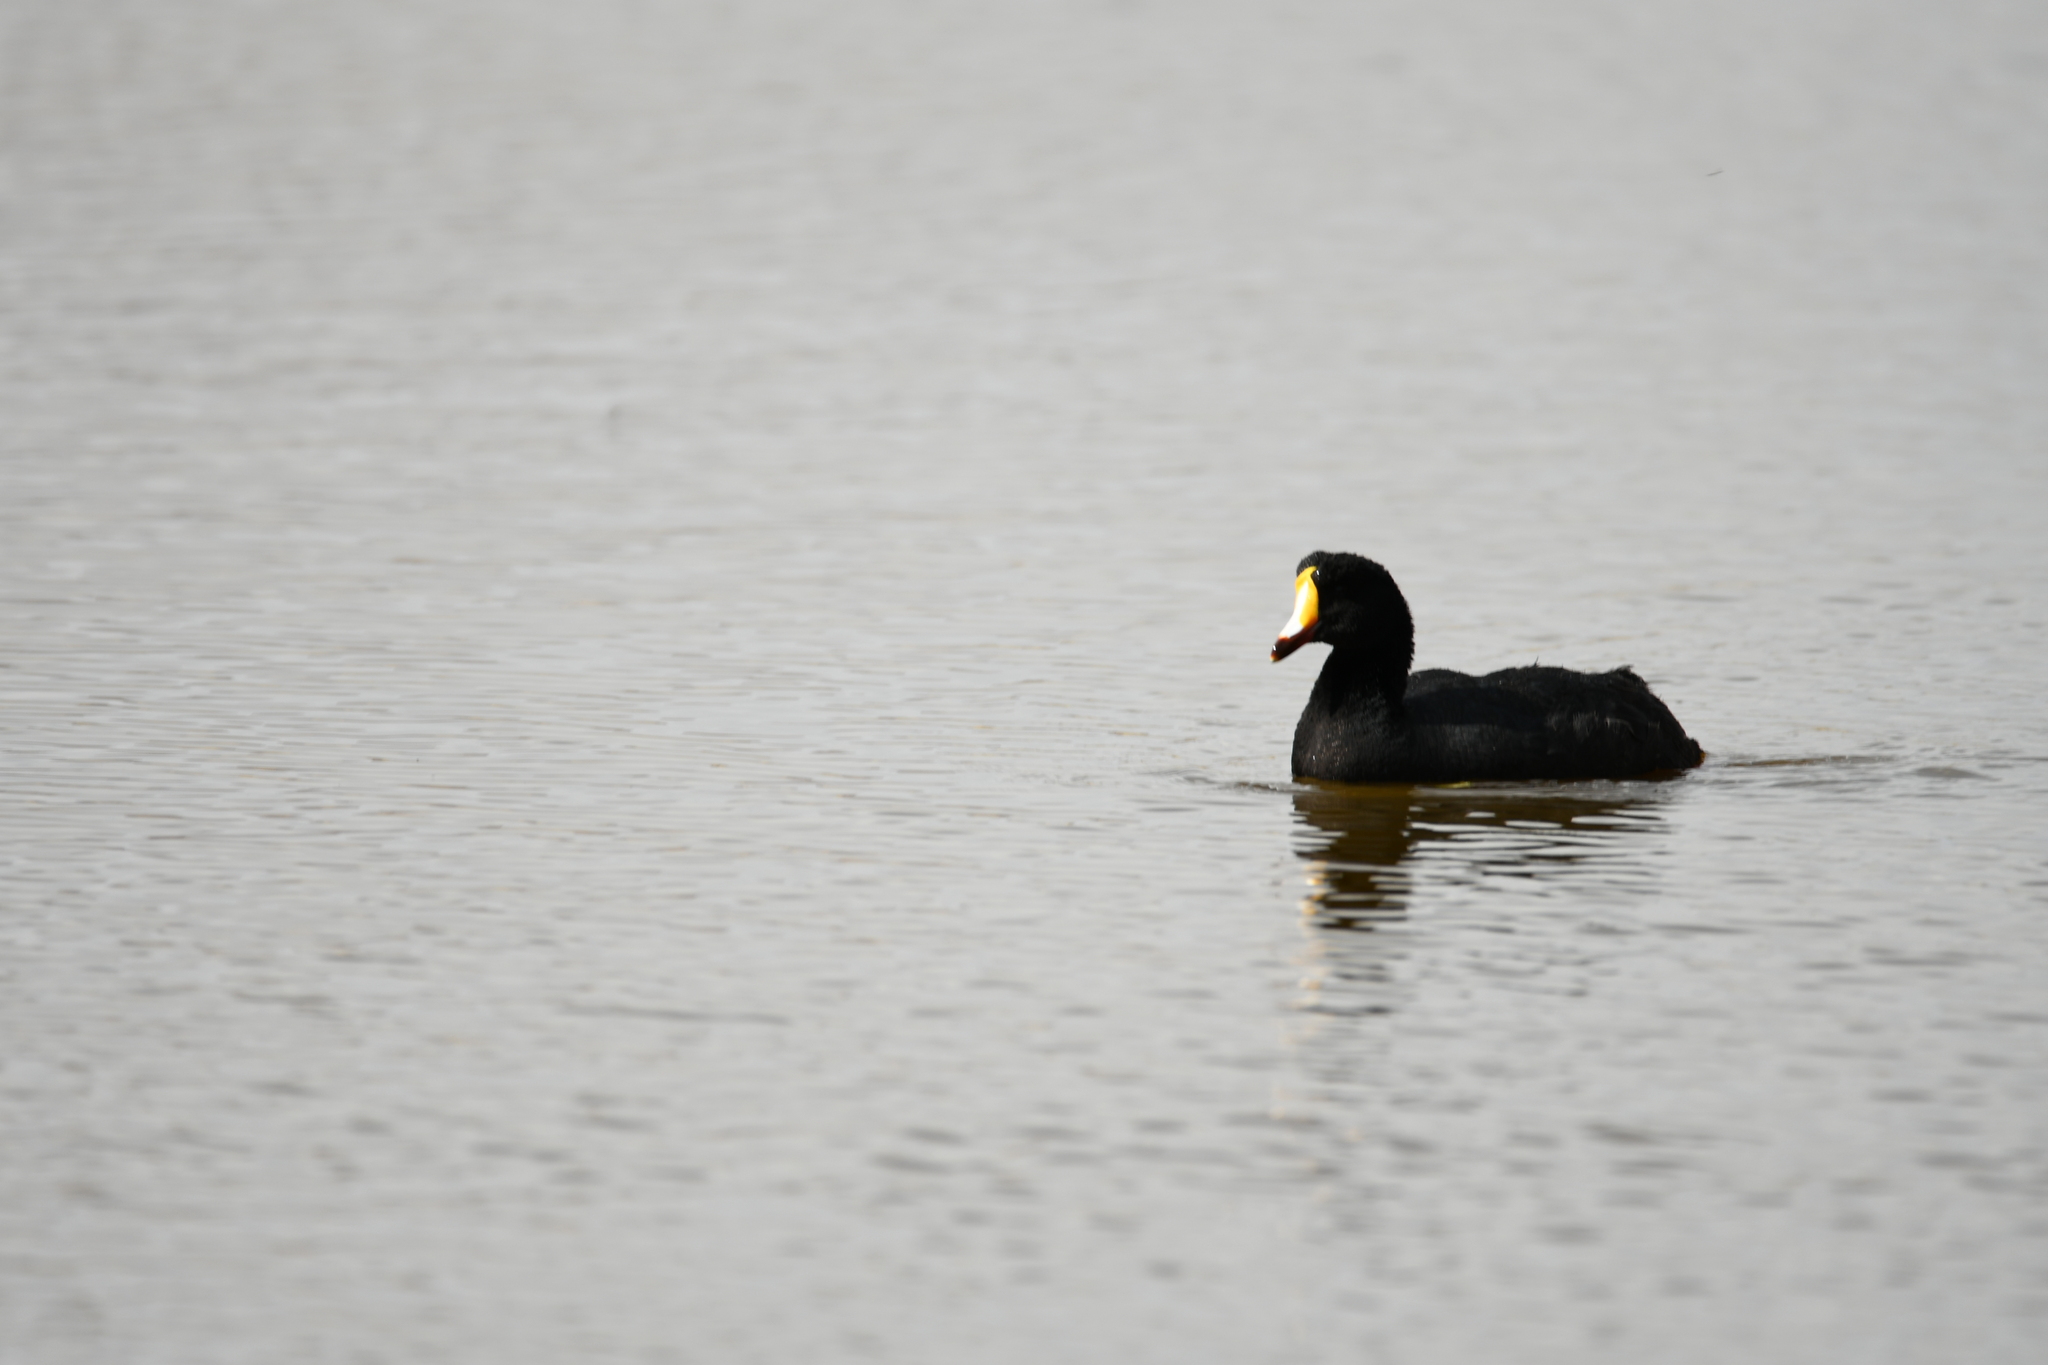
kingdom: Animalia
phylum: Chordata
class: Aves
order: Gruiformes
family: Rallidae
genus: Fulica
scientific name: Fulica gigantea
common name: Giant coot
